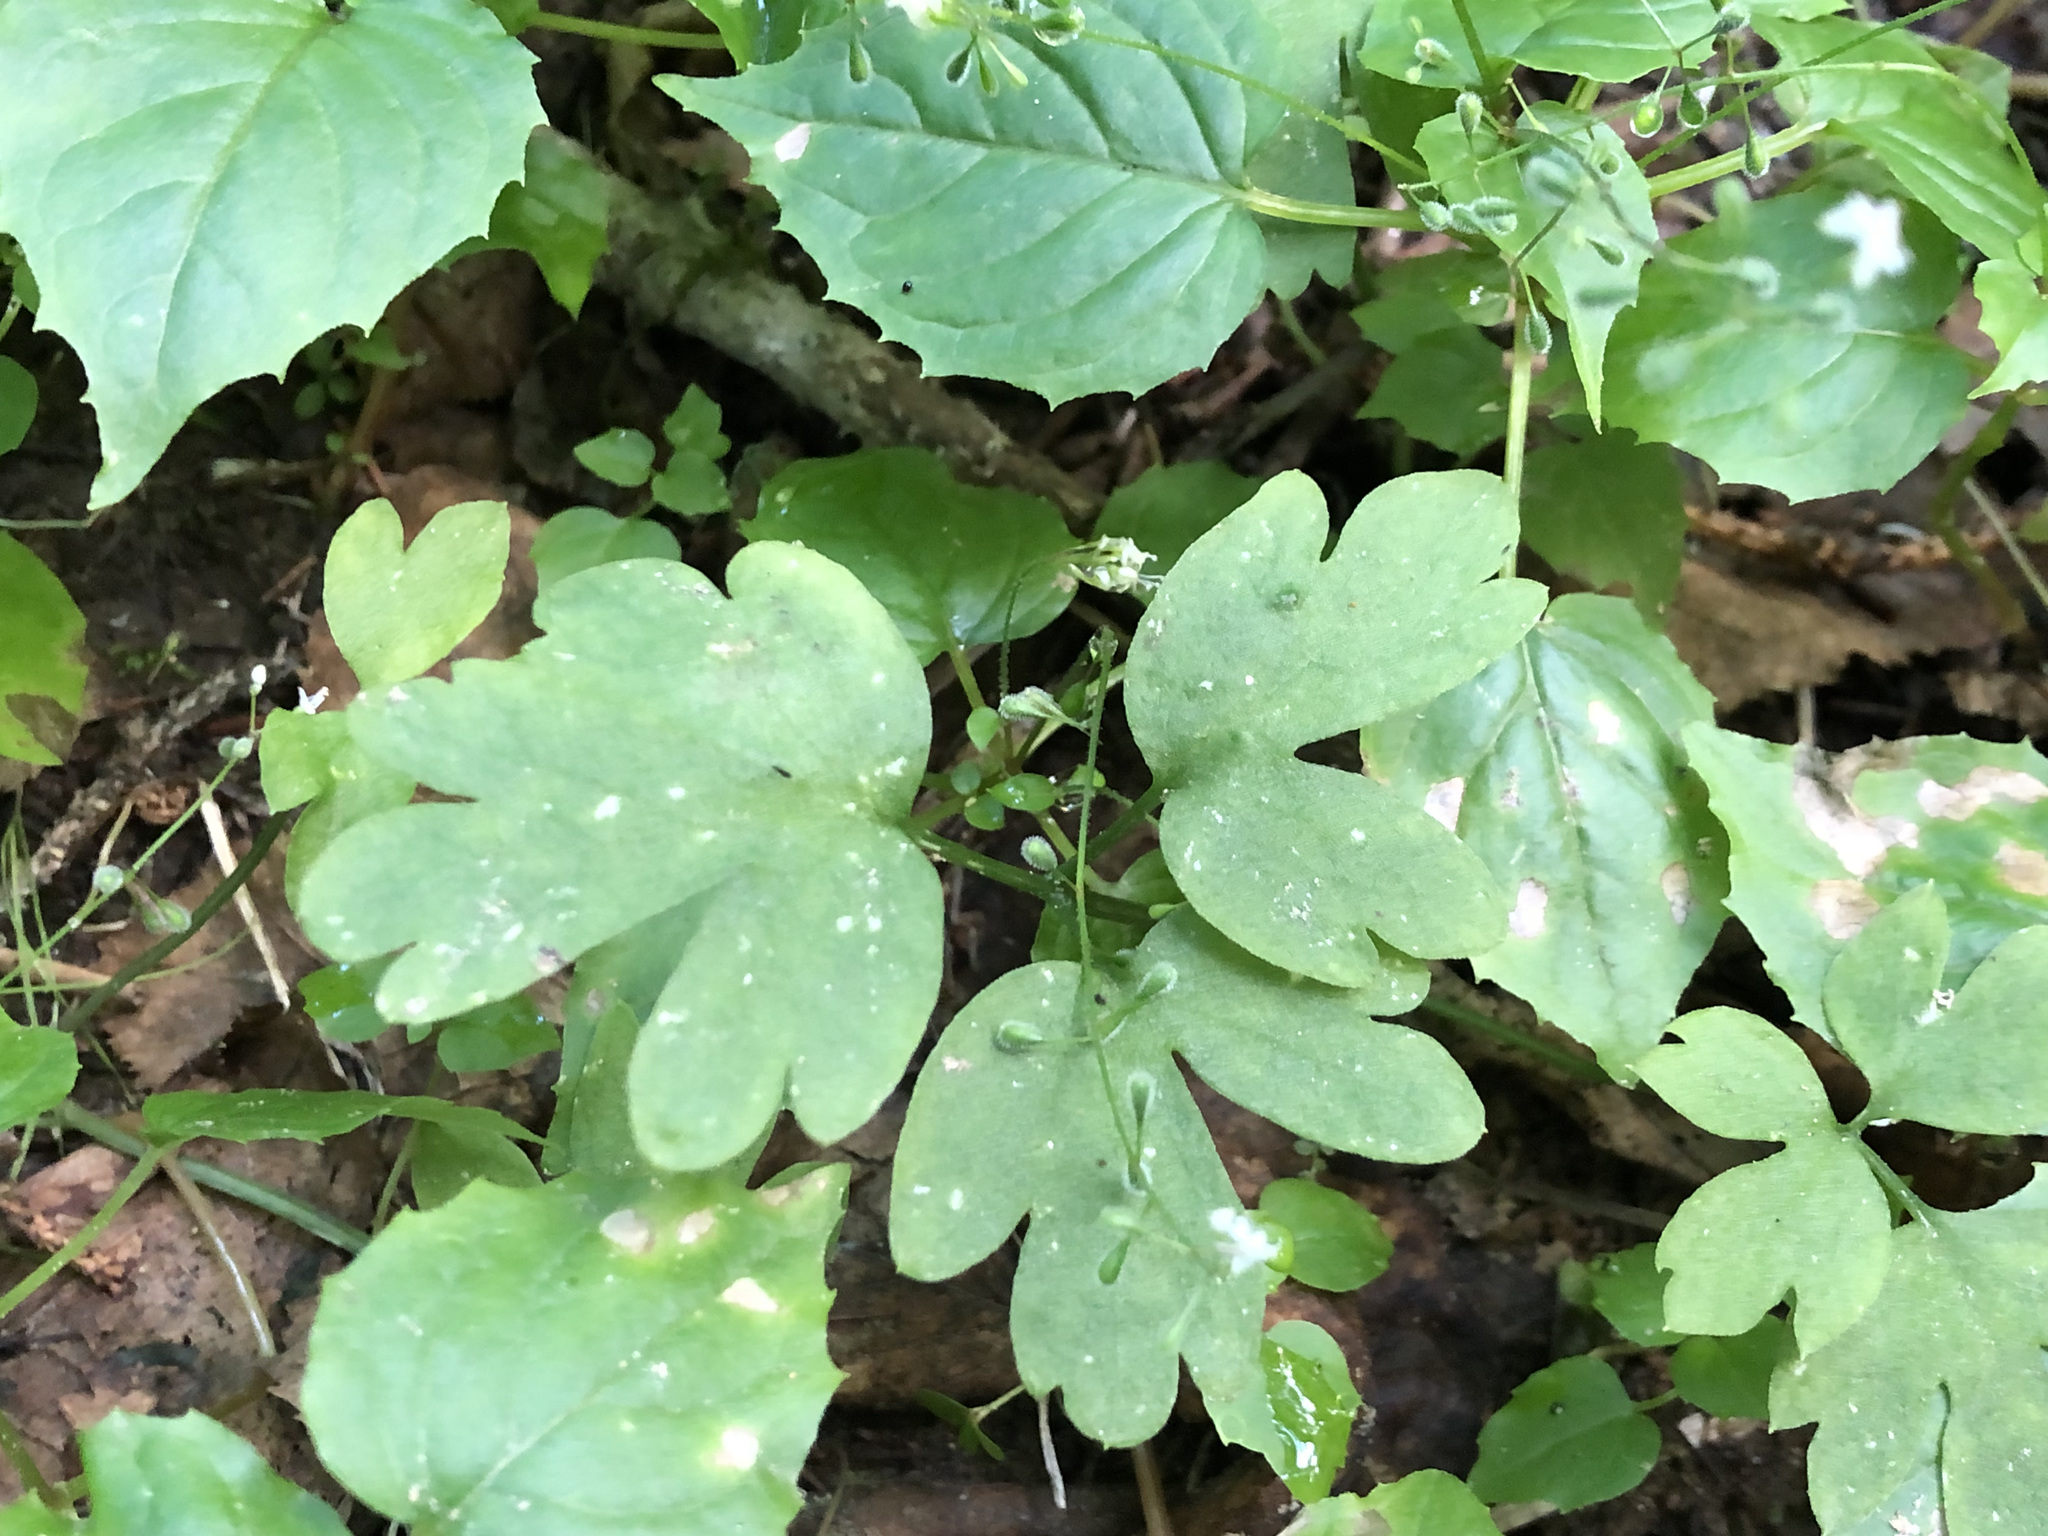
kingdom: Plantae
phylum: Tracheophyta
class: Magnoliopsida
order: Dipsacales
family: Viburnaceae
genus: Adoxa
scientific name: Adoxa moschatellina
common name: Moschatel
